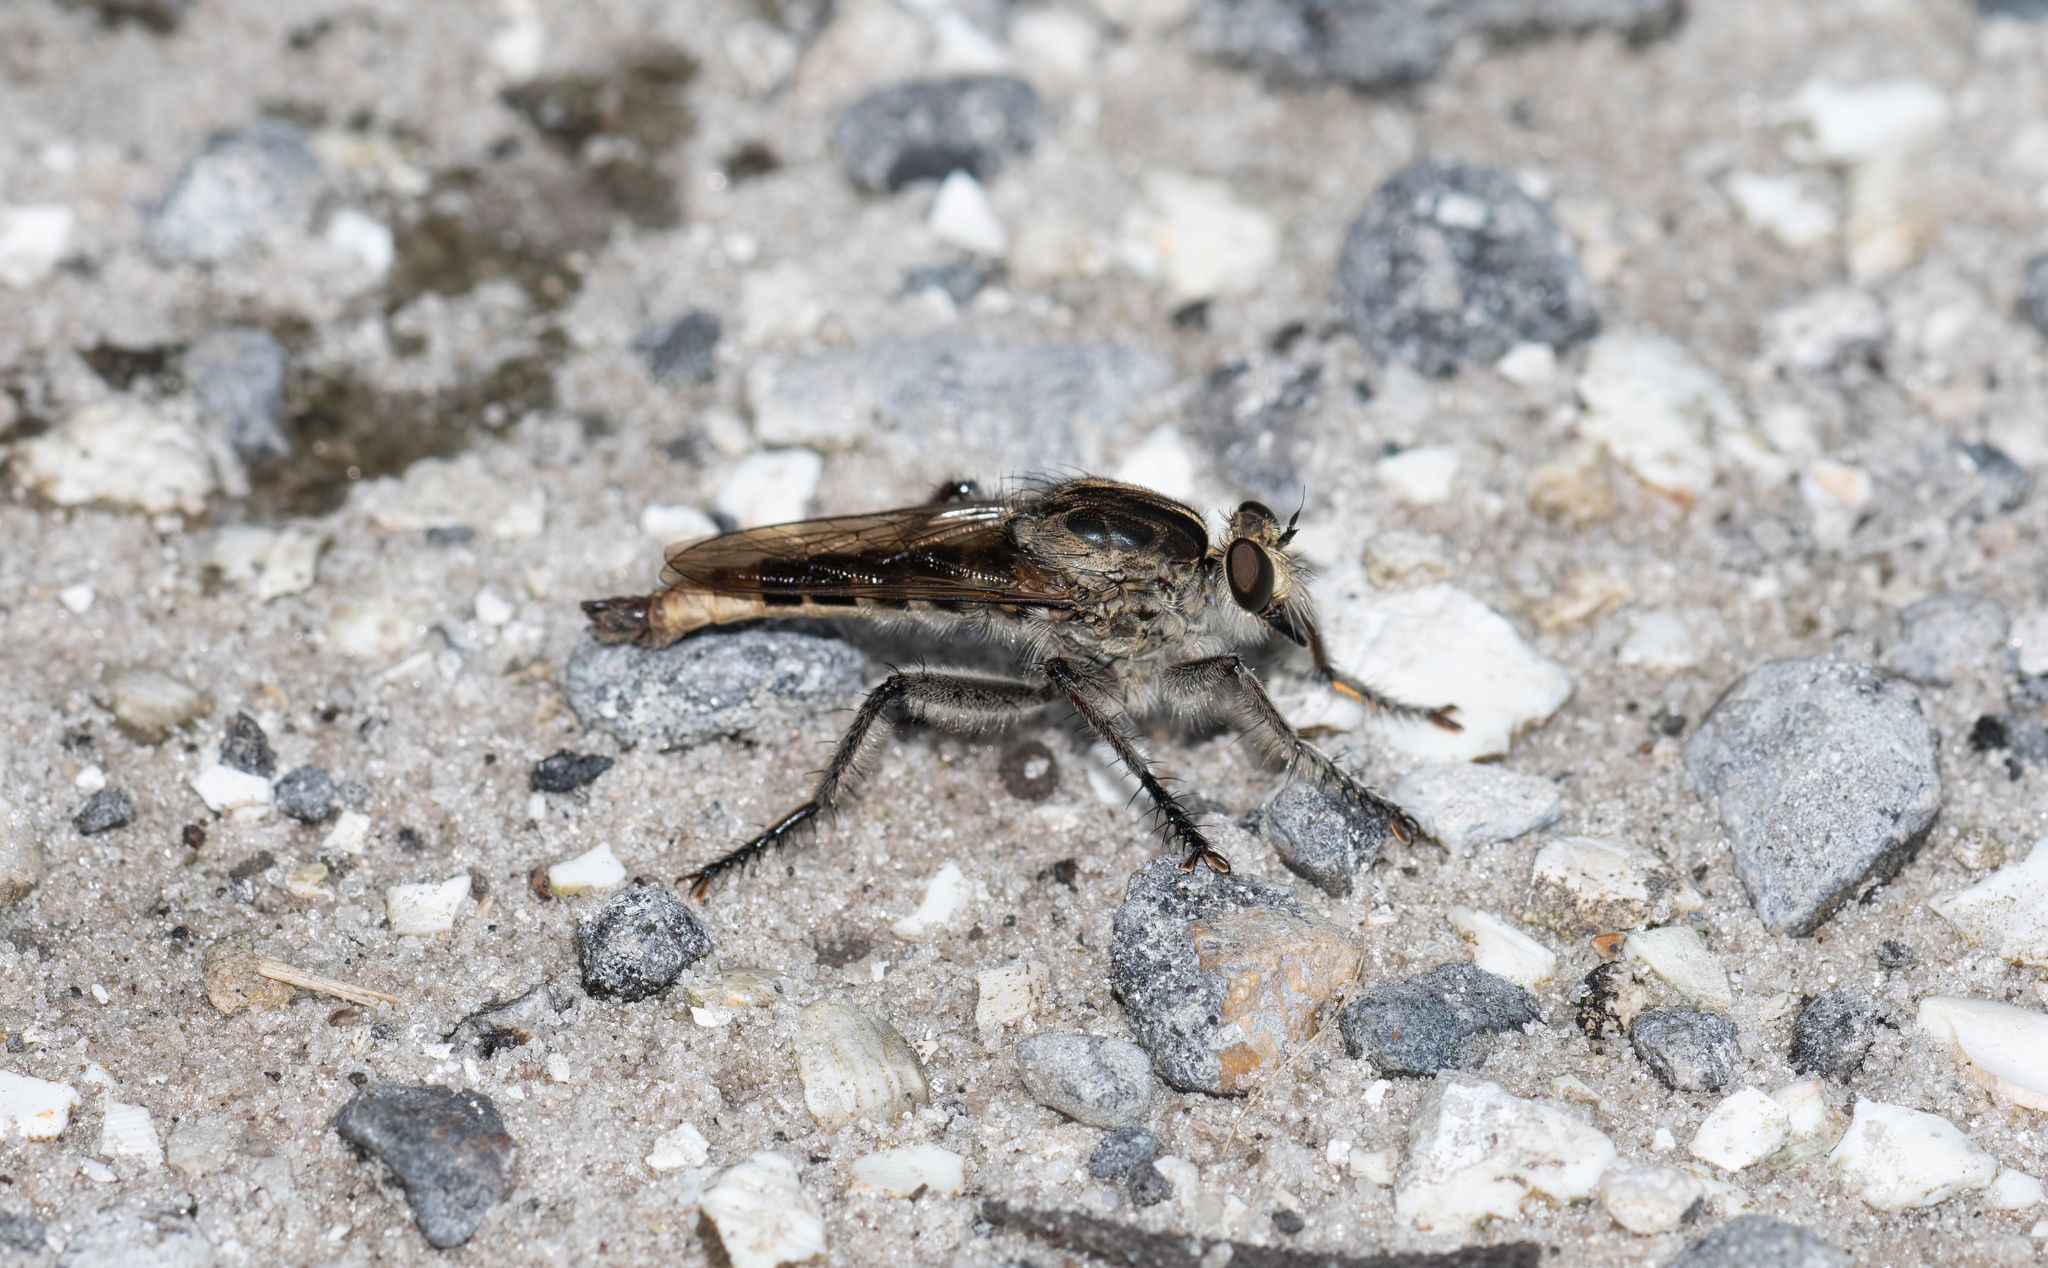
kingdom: Animalia
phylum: Arthropoda
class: Insecta
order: Diptera
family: Asilidae
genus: Triorla
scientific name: Triorla interrupta
